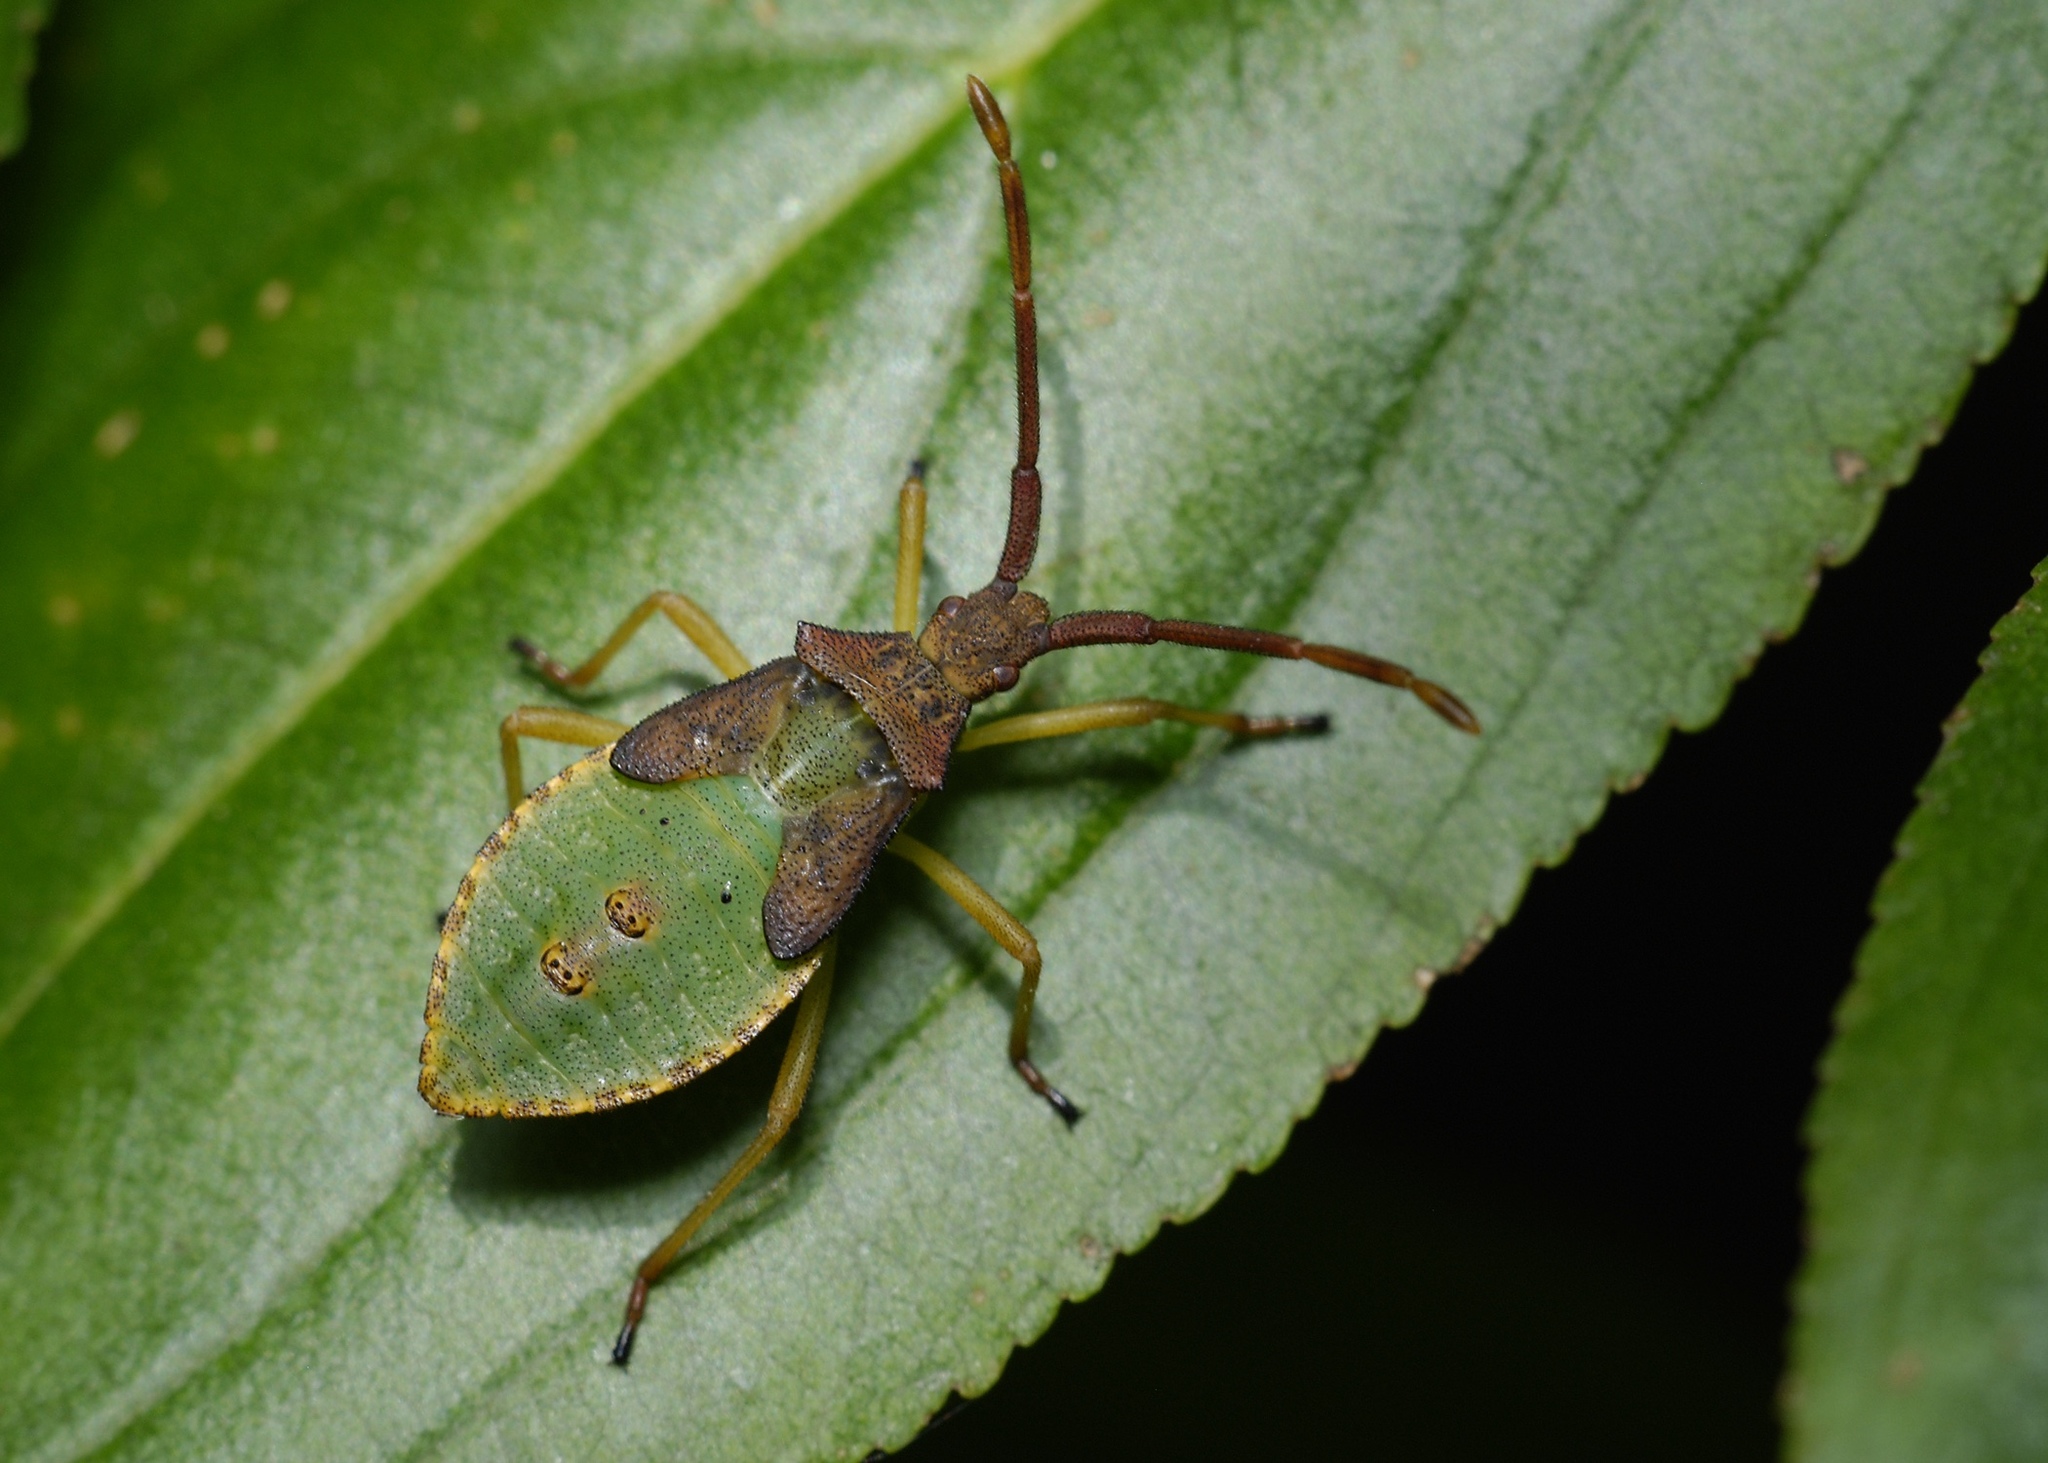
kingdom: Animalia
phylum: Arthropoda
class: Insecta
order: Hemiptera
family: Coreidae
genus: Gonocerus
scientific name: Gonocerus acuteangulatus
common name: Box bug
